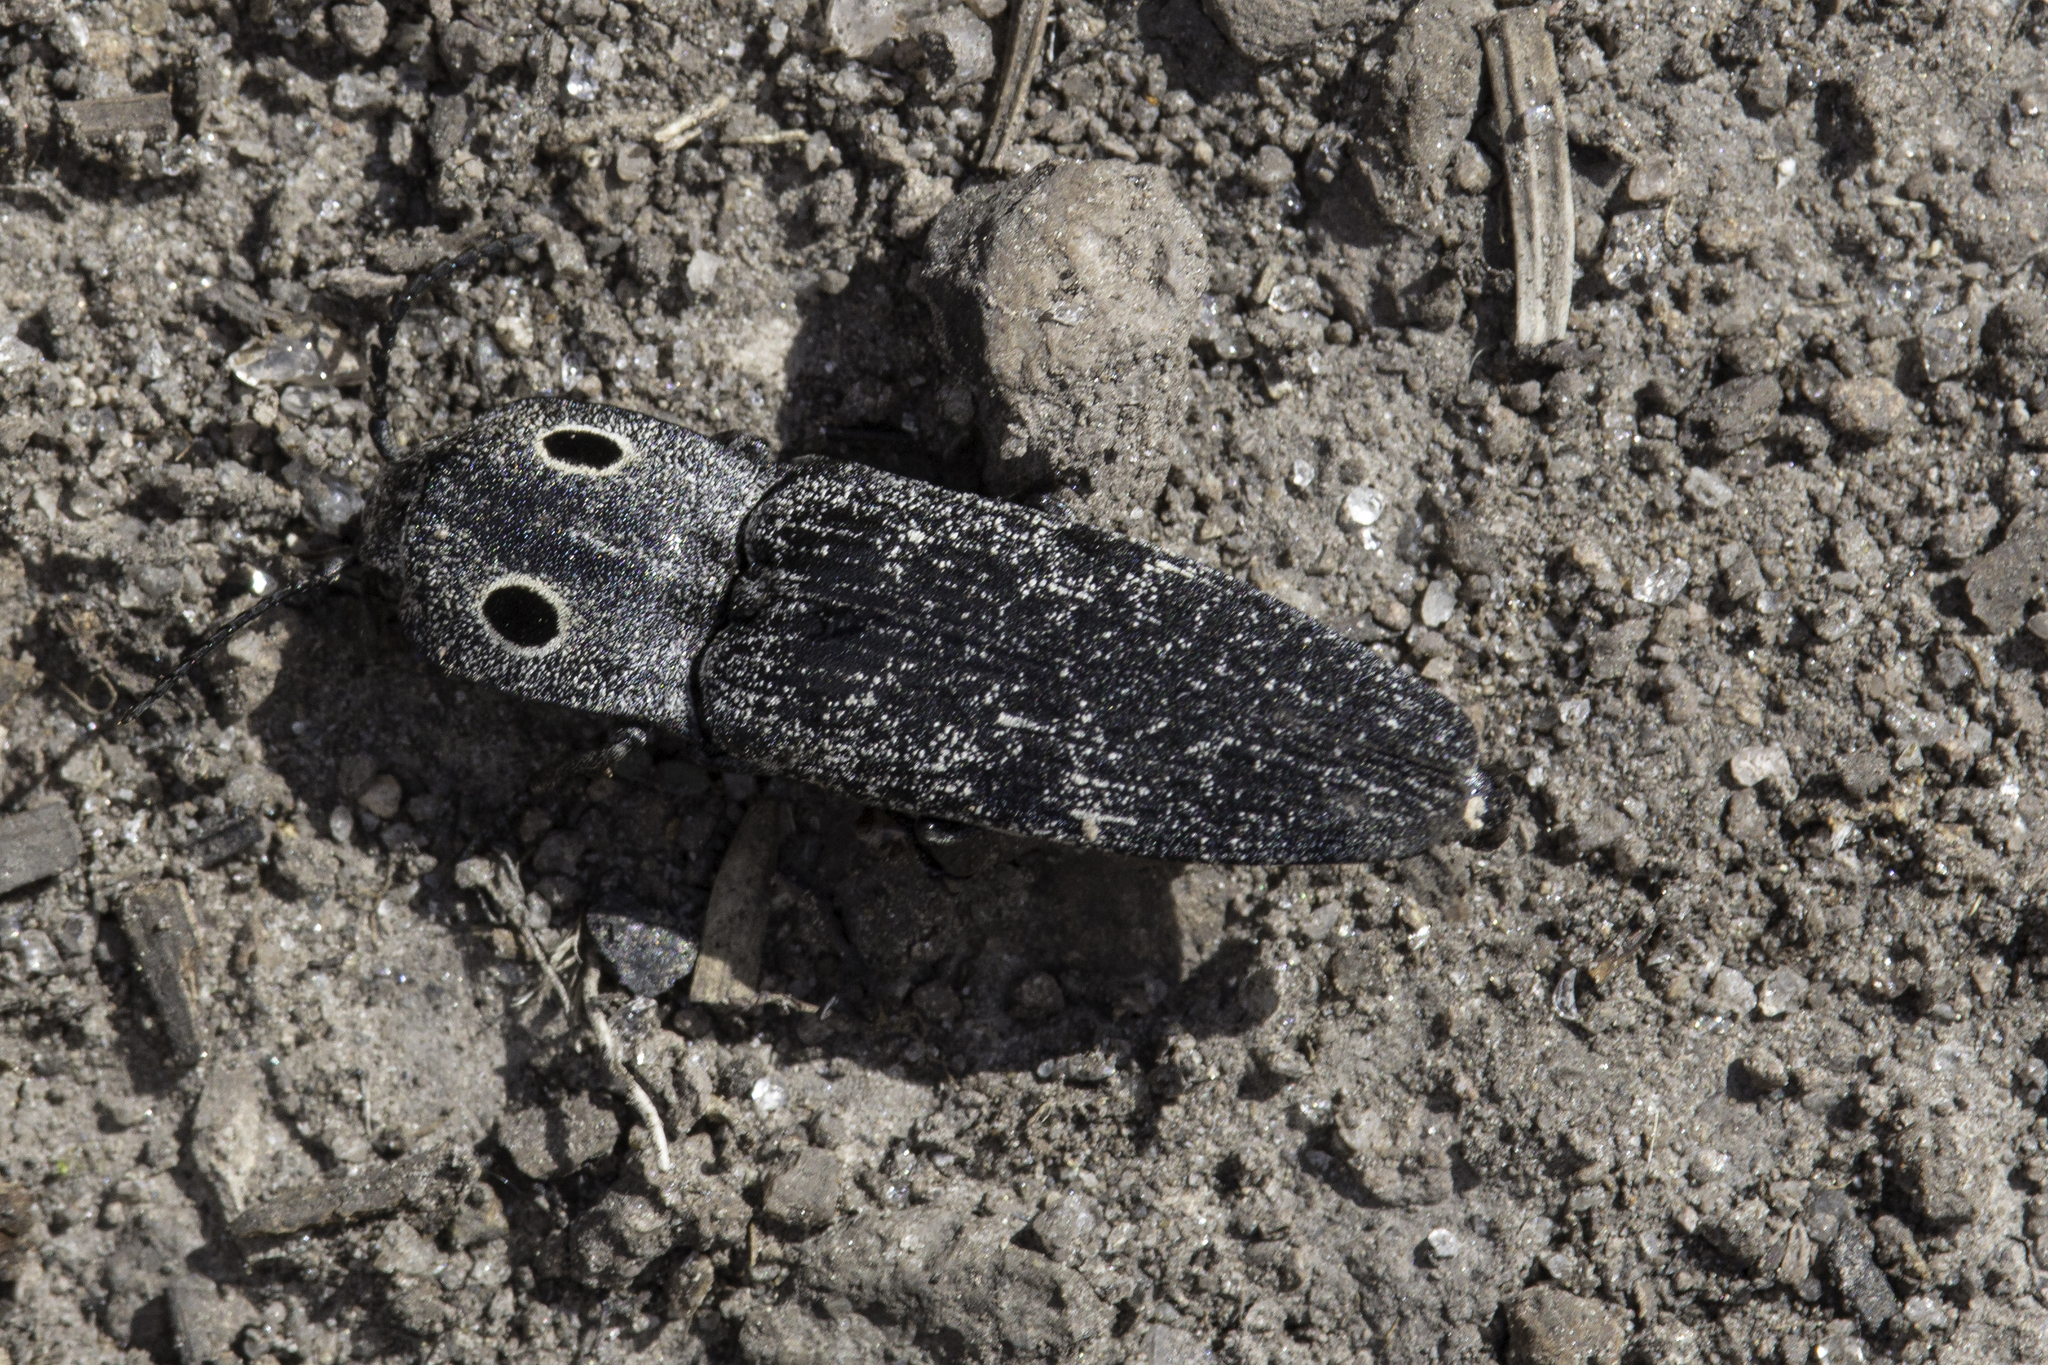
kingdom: Animalia
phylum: Arthropoda
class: Insecta
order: Coleoptera
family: Elateridae
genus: Alaus
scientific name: Alaus melanops
